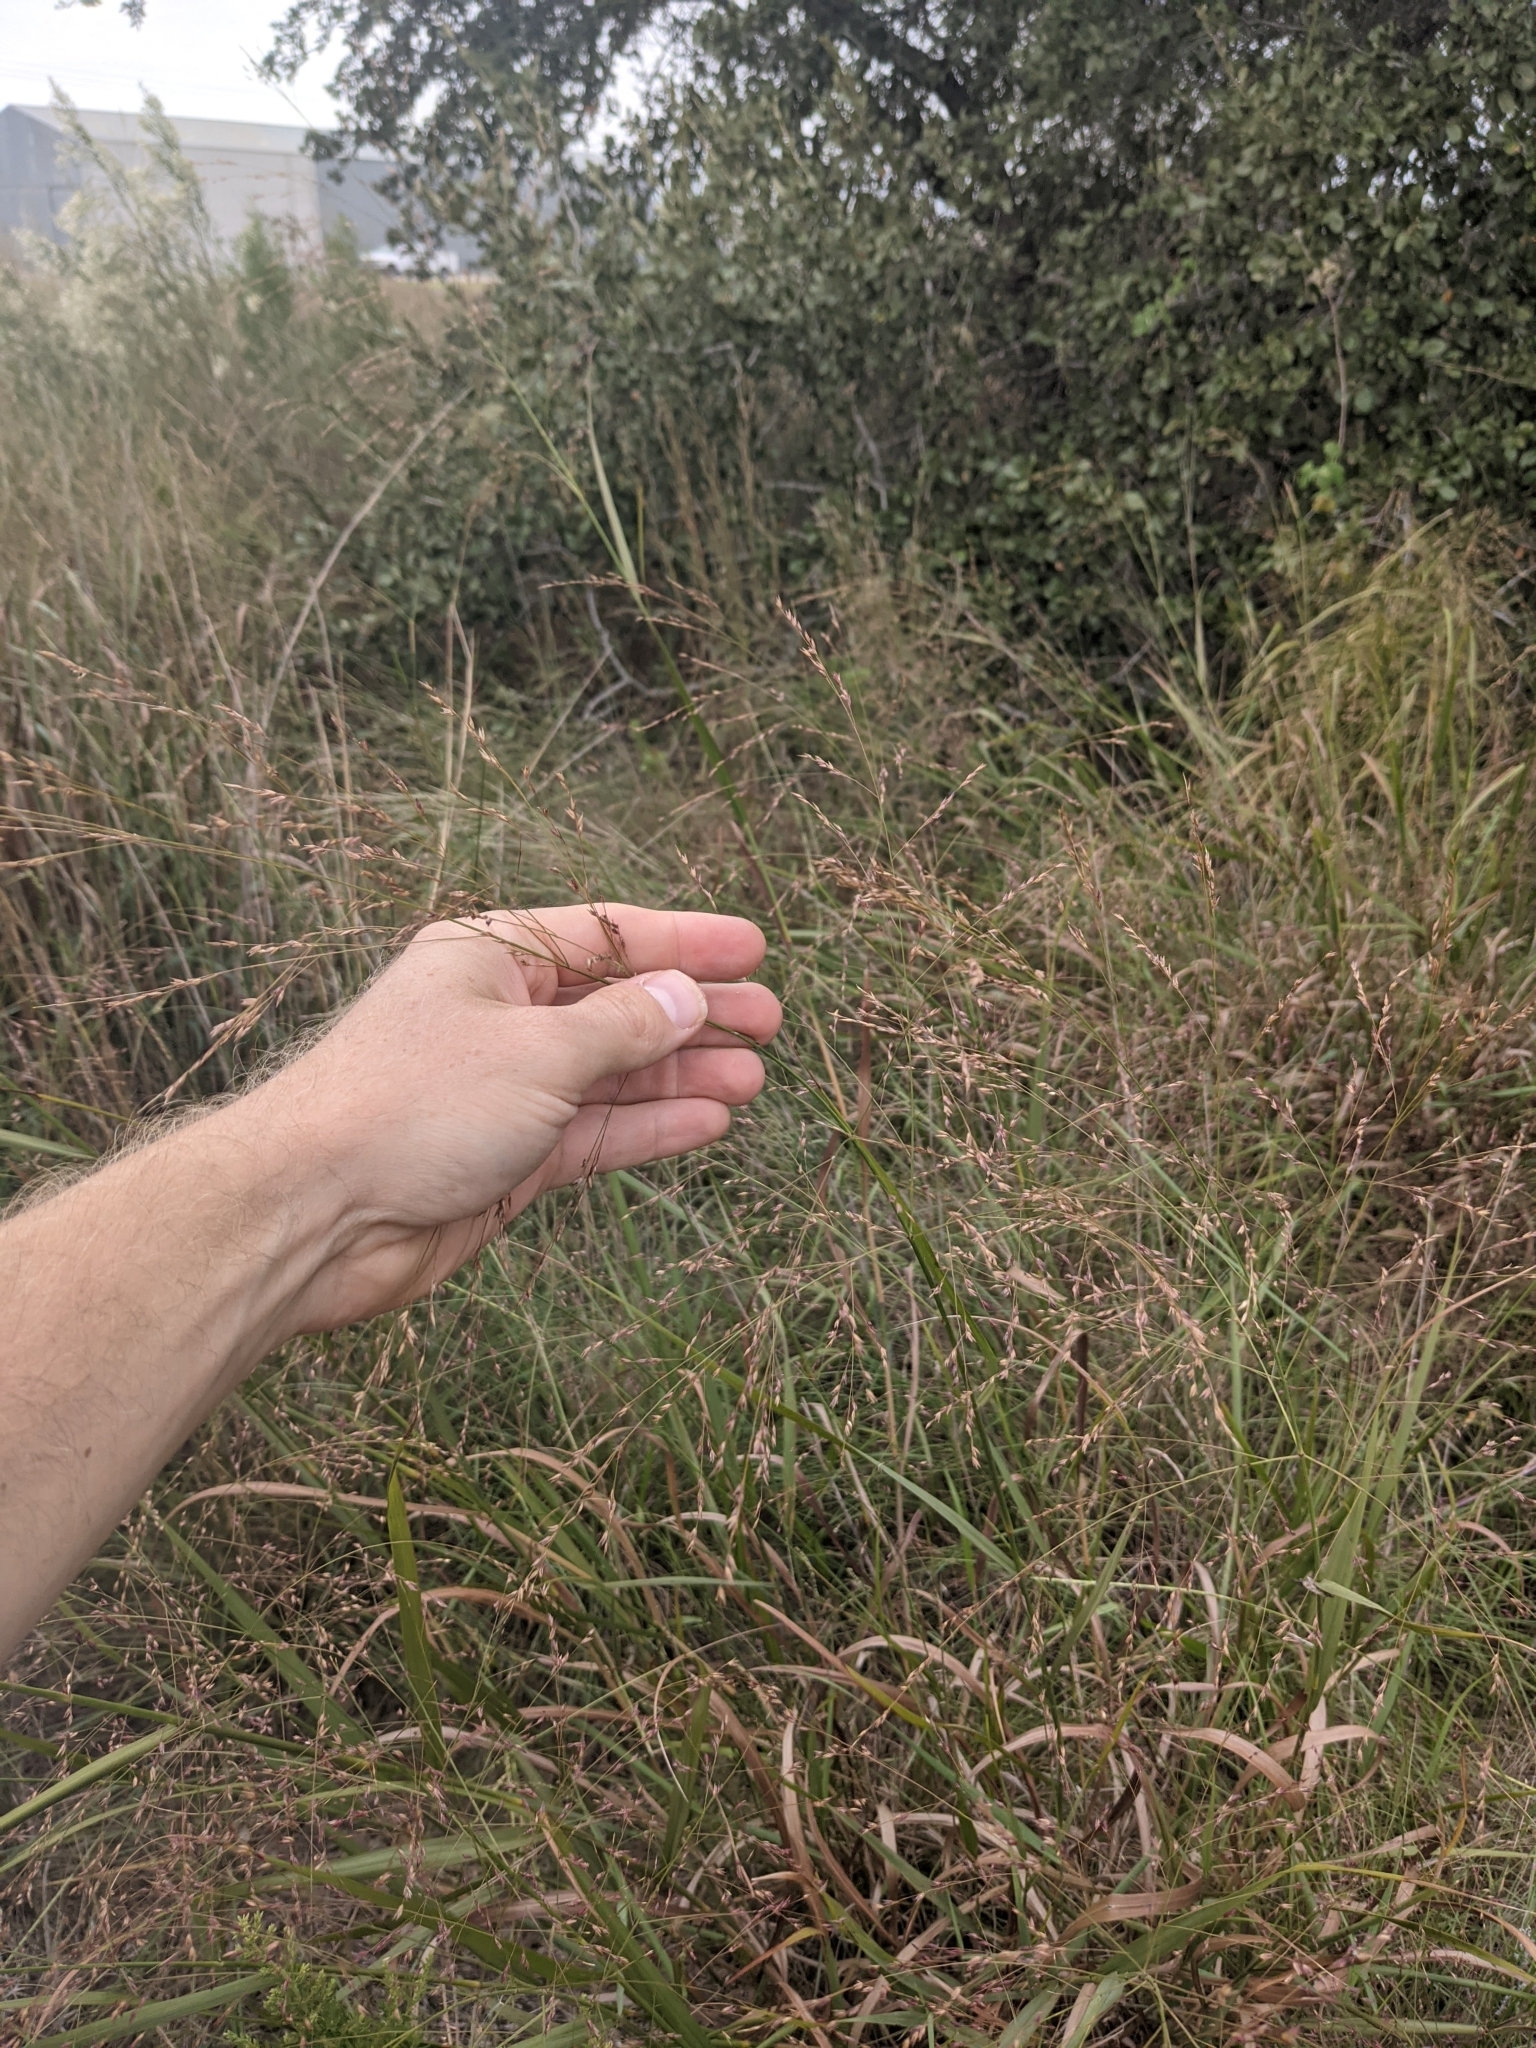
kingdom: Plantae
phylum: Tracheophyta
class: Liliopsida
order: Poales
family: Poaceae
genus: Panicum
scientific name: Panicum virgatum
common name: Switchgrass
